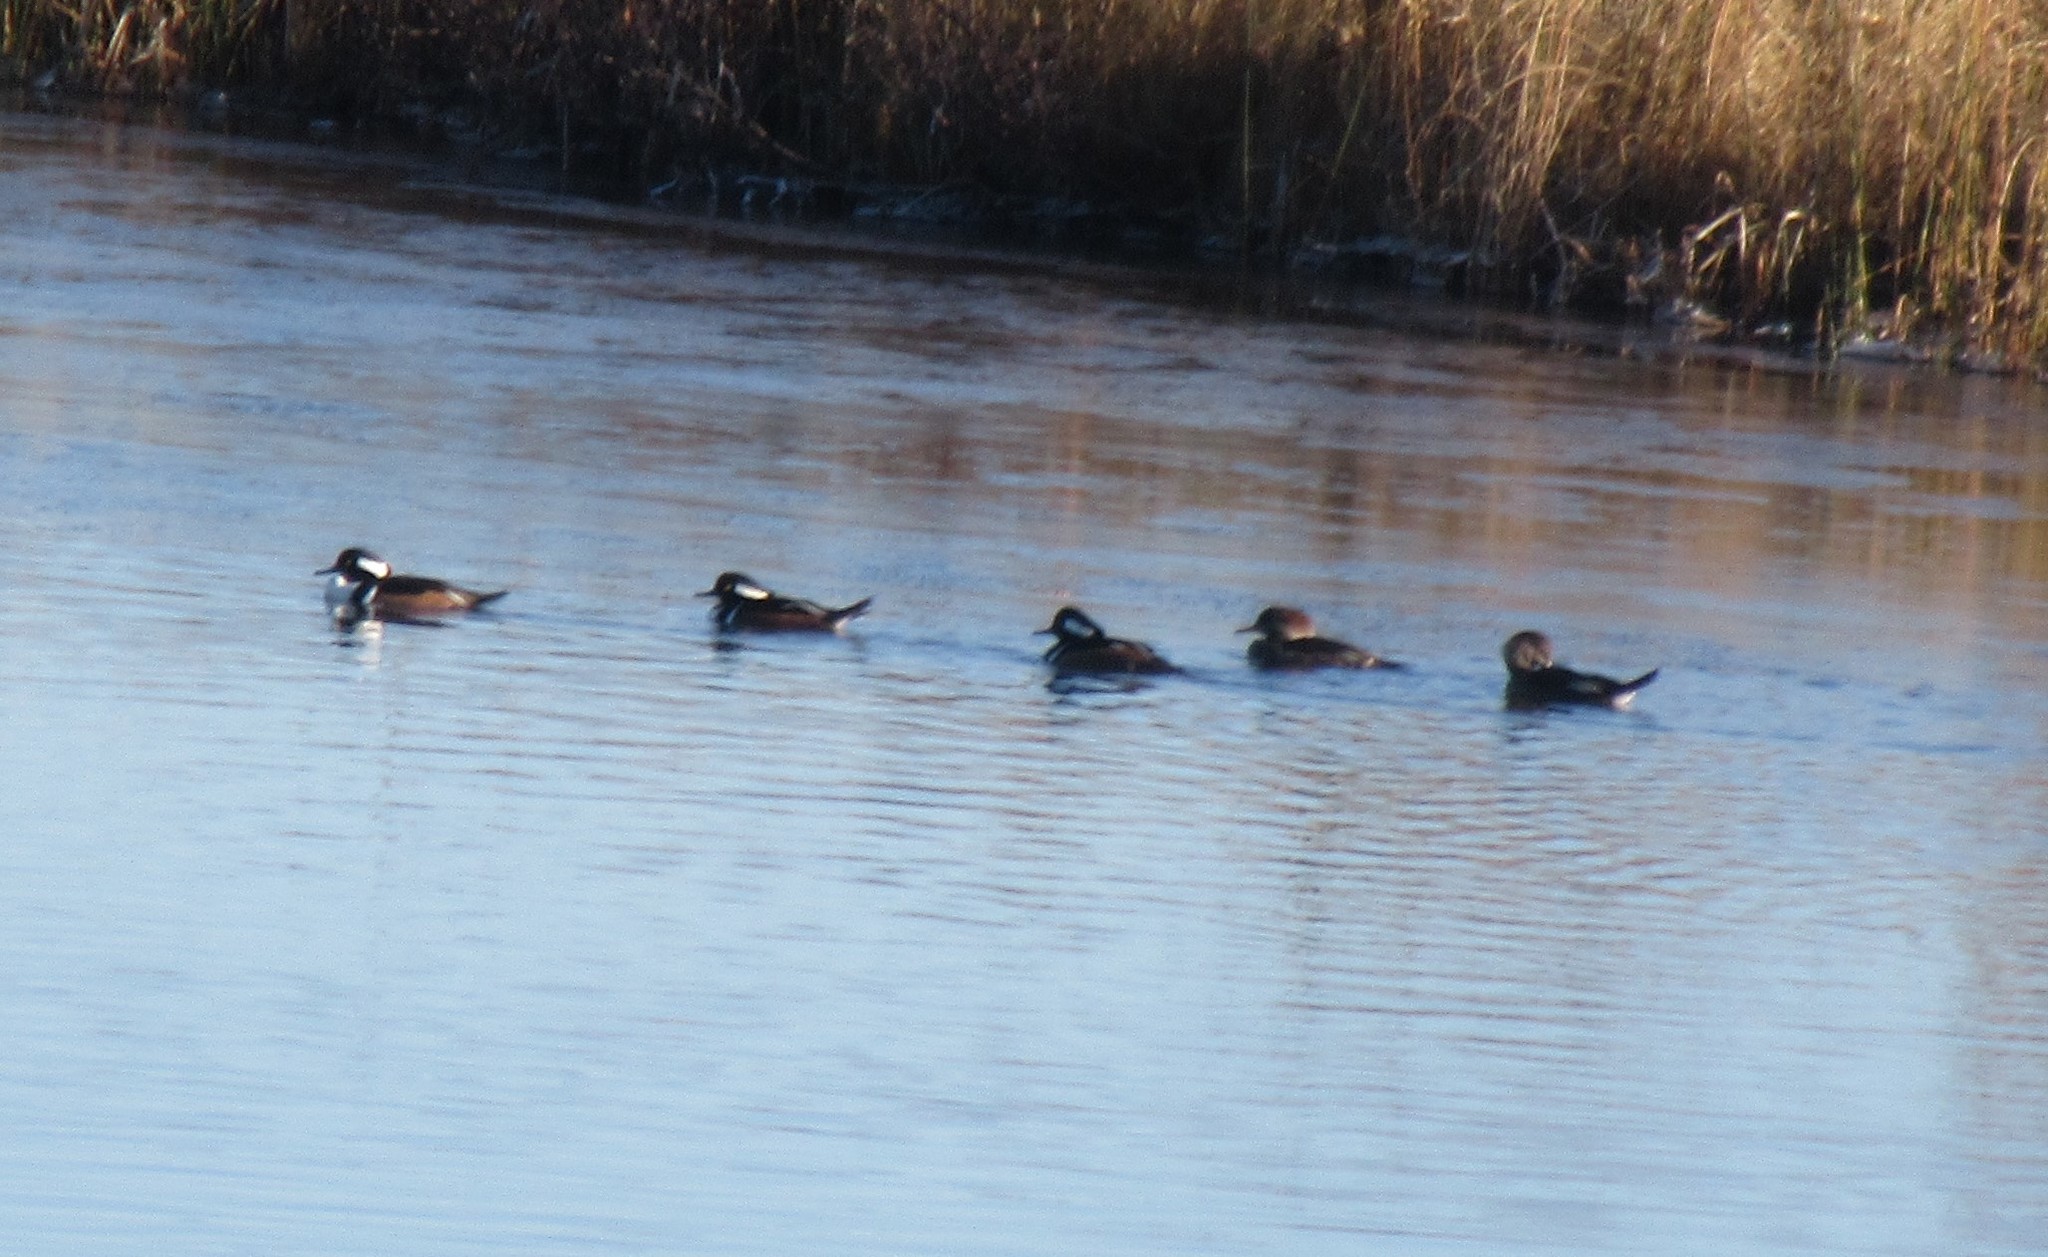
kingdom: Animalia
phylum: Chordata
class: Aves
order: Anseriformes
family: Anatidae
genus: Lophodytes
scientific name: Lophodytes cucullatus
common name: Hooded merganser
